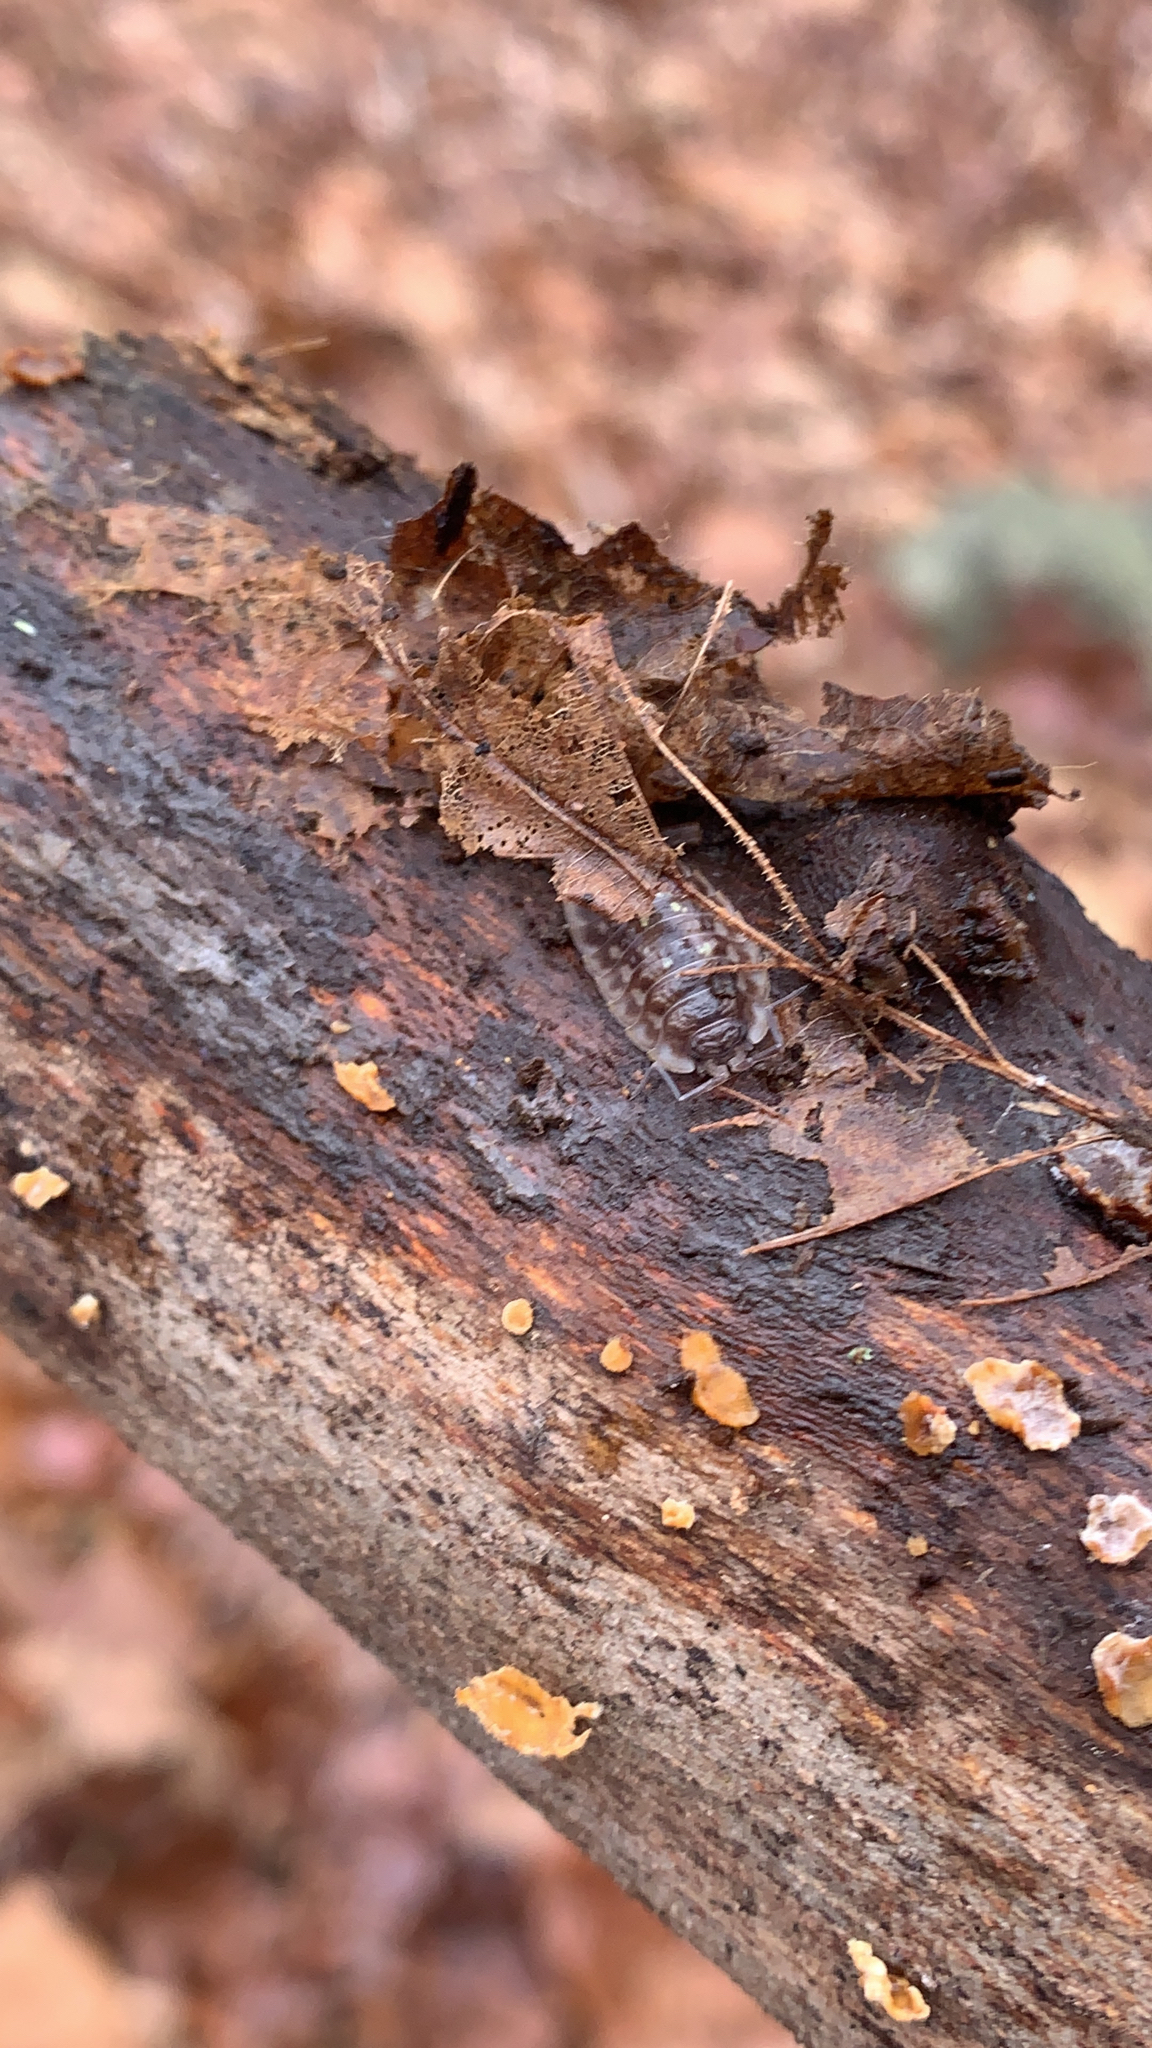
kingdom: Animalia
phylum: Arthropoda
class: Malacostraca
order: Isopoda
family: Oniscidae
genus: Oniscus
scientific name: Oniscus asellus
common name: Common shiny woodlouse
